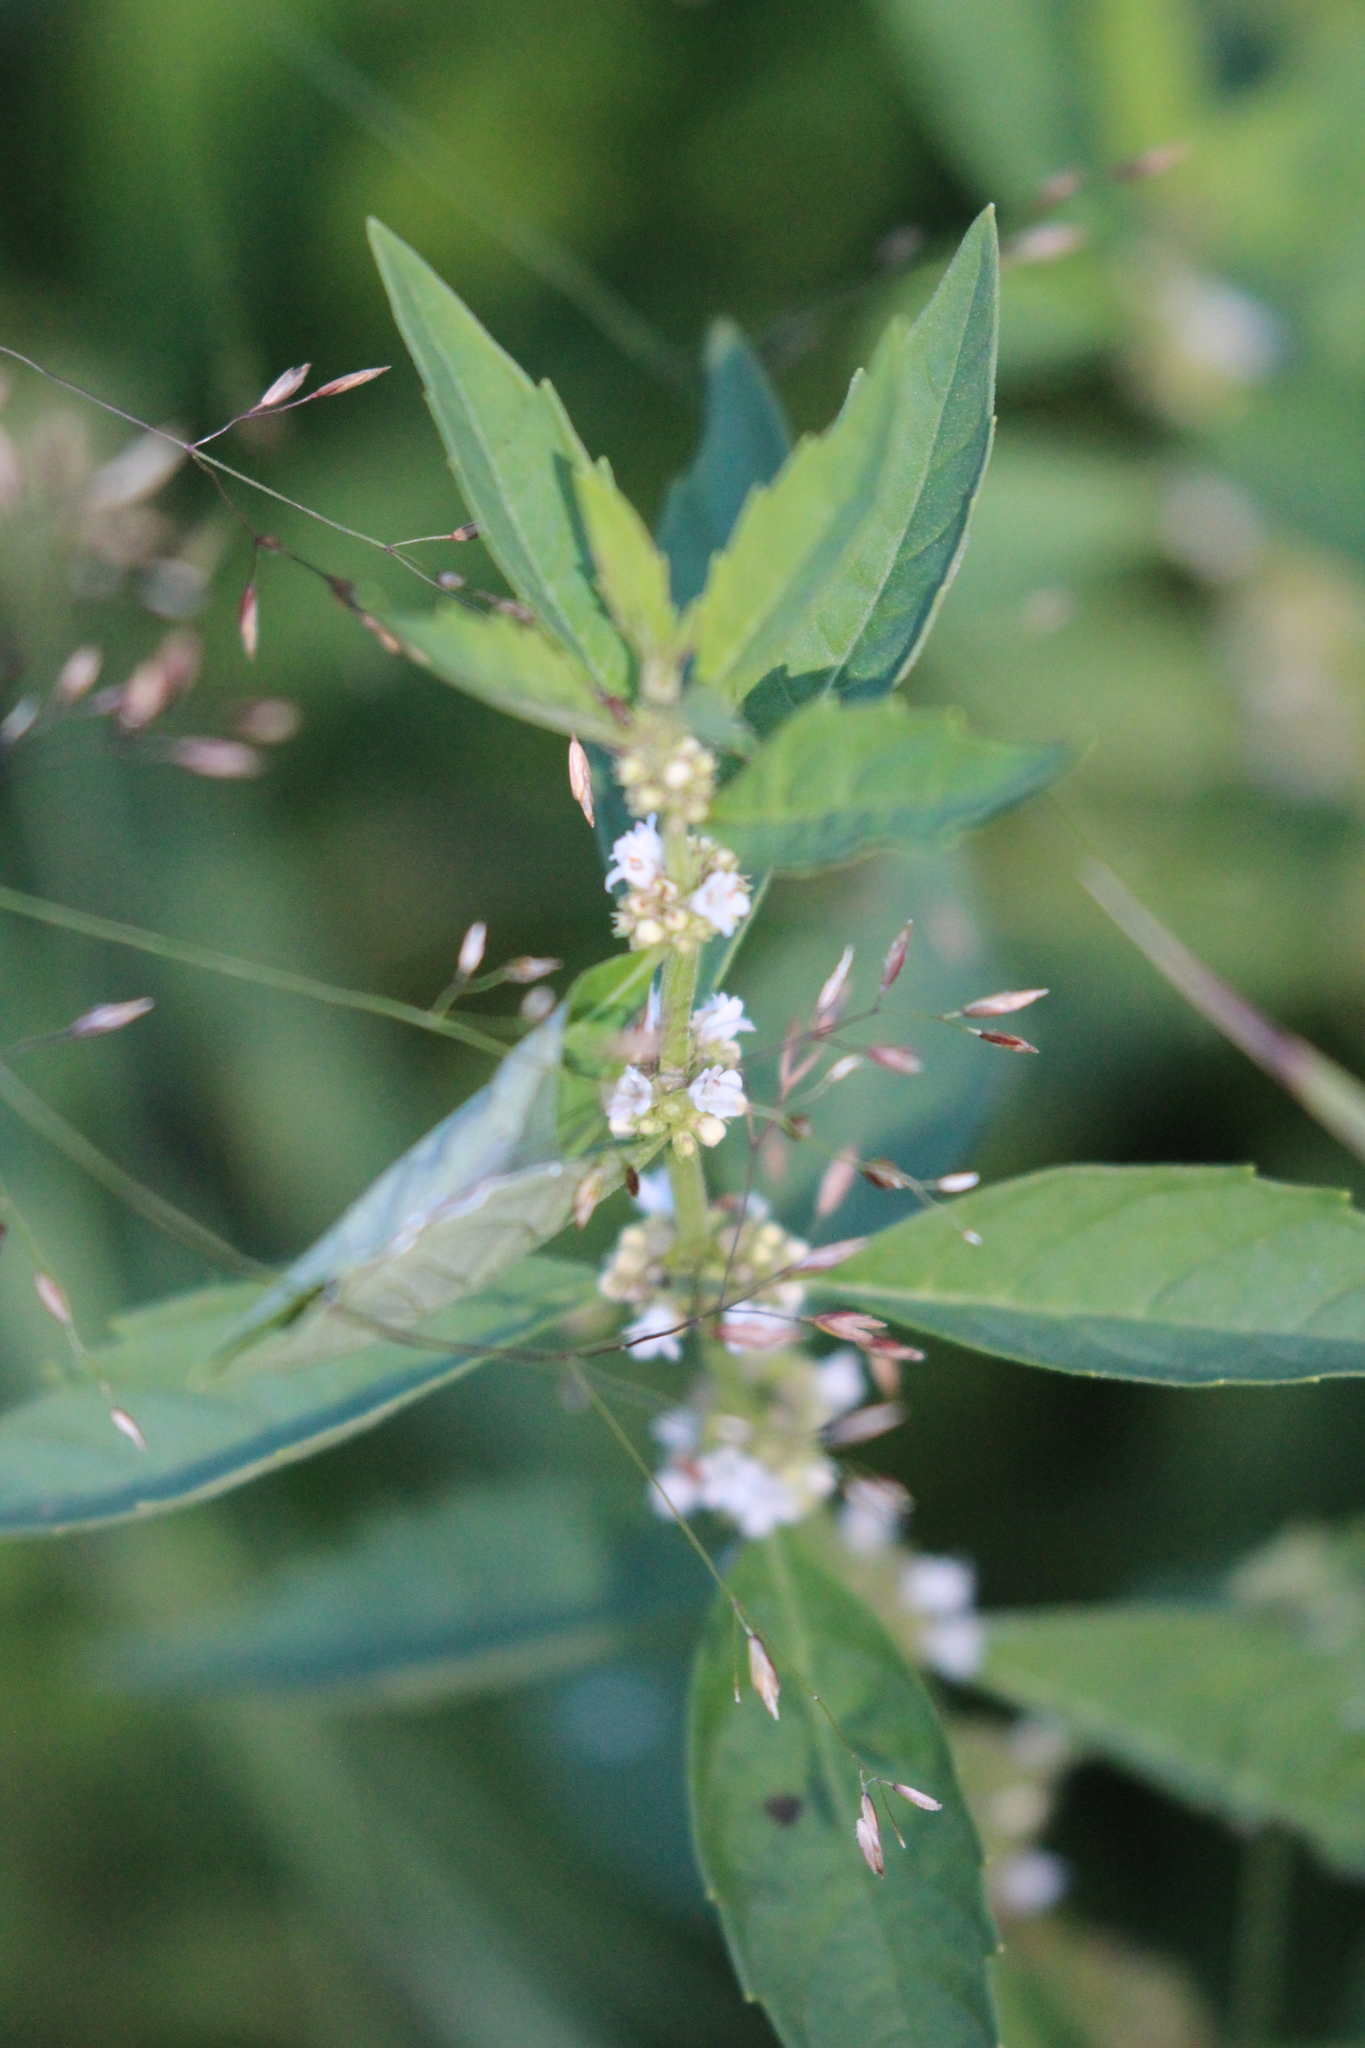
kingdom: Plantae
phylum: Tracheophyta
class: Magnoliopsida
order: Lamiales
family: Lamiaceae
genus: Lycopus
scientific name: Lycopus uniflorus
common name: Northern bugleweed
